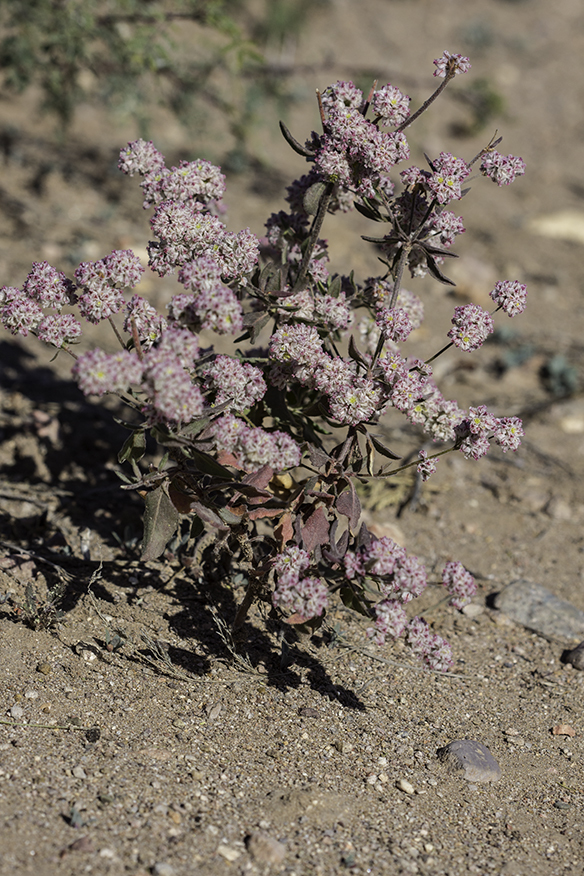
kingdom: Plantae
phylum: Tracheophyta
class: Magnoliopsida
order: Caryophyllales
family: Polygonaceae
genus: Eriogonum
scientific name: Eriogonum abertianum
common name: Abert's wild buckwheat
